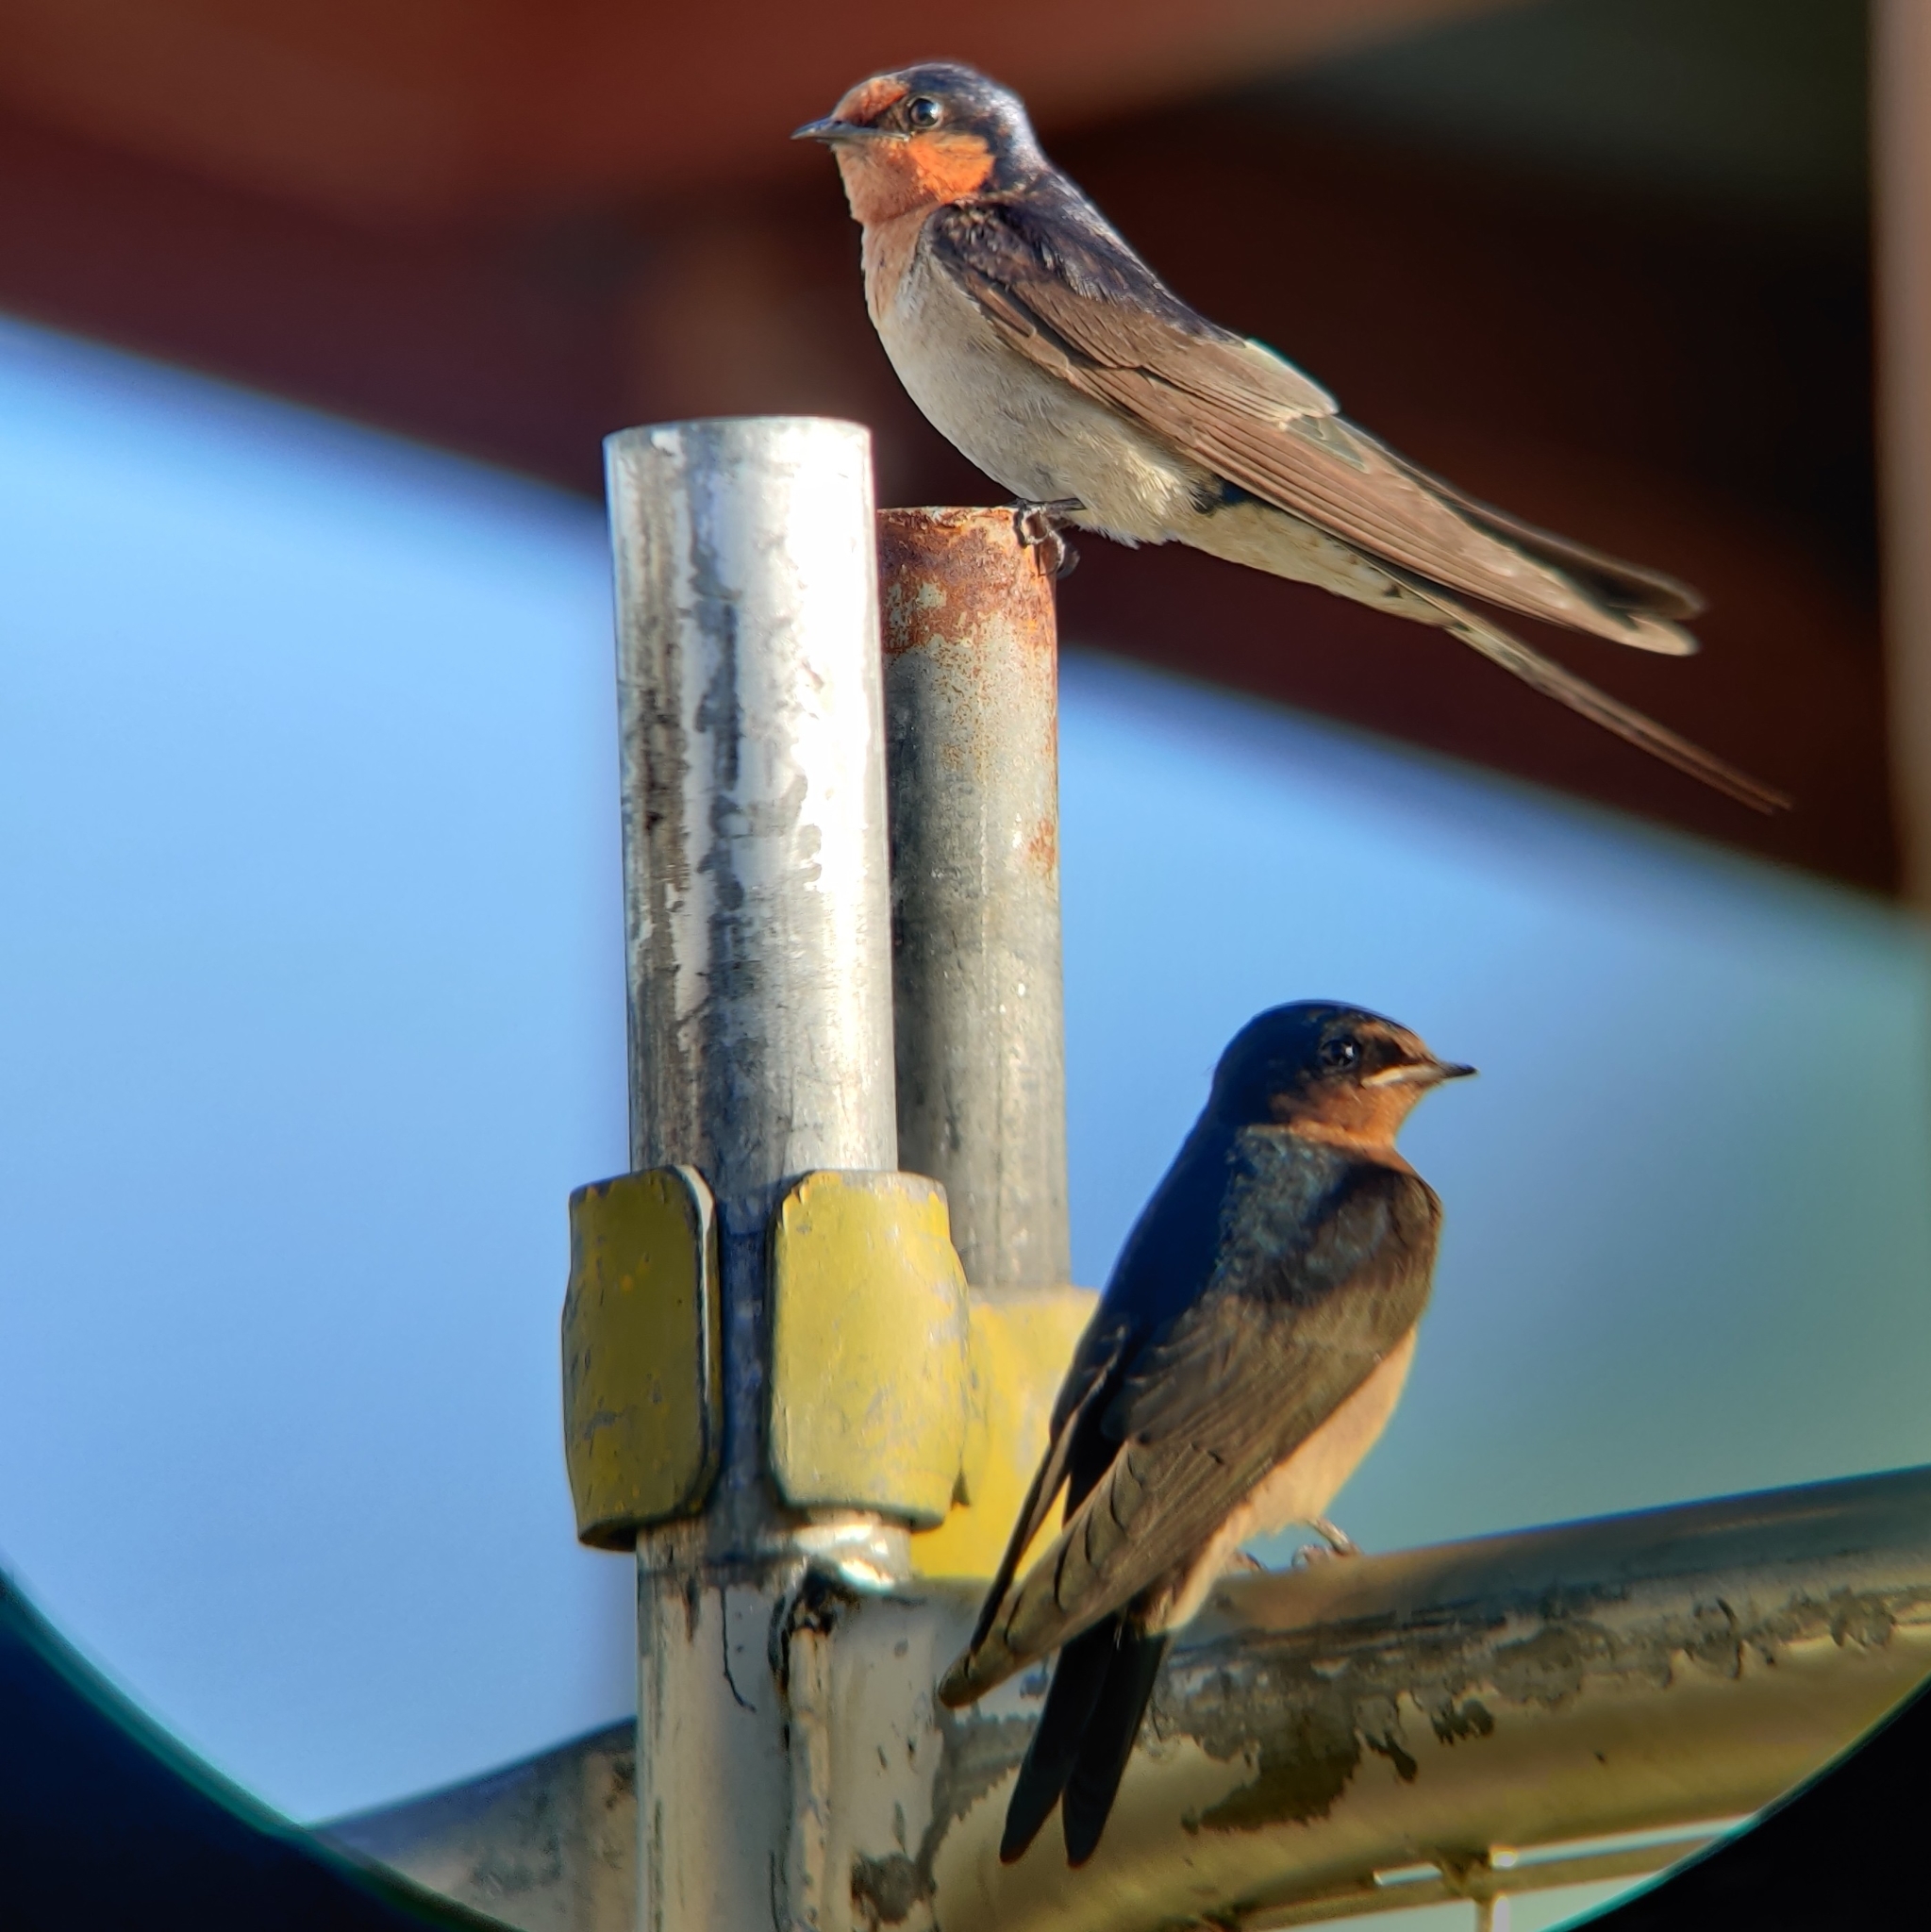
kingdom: Animalia
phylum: Chordata
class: Aves
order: Passeriformes
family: Hirundinidae
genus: Hirundo
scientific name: Hirundo neoxena
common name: Welcome swallow
